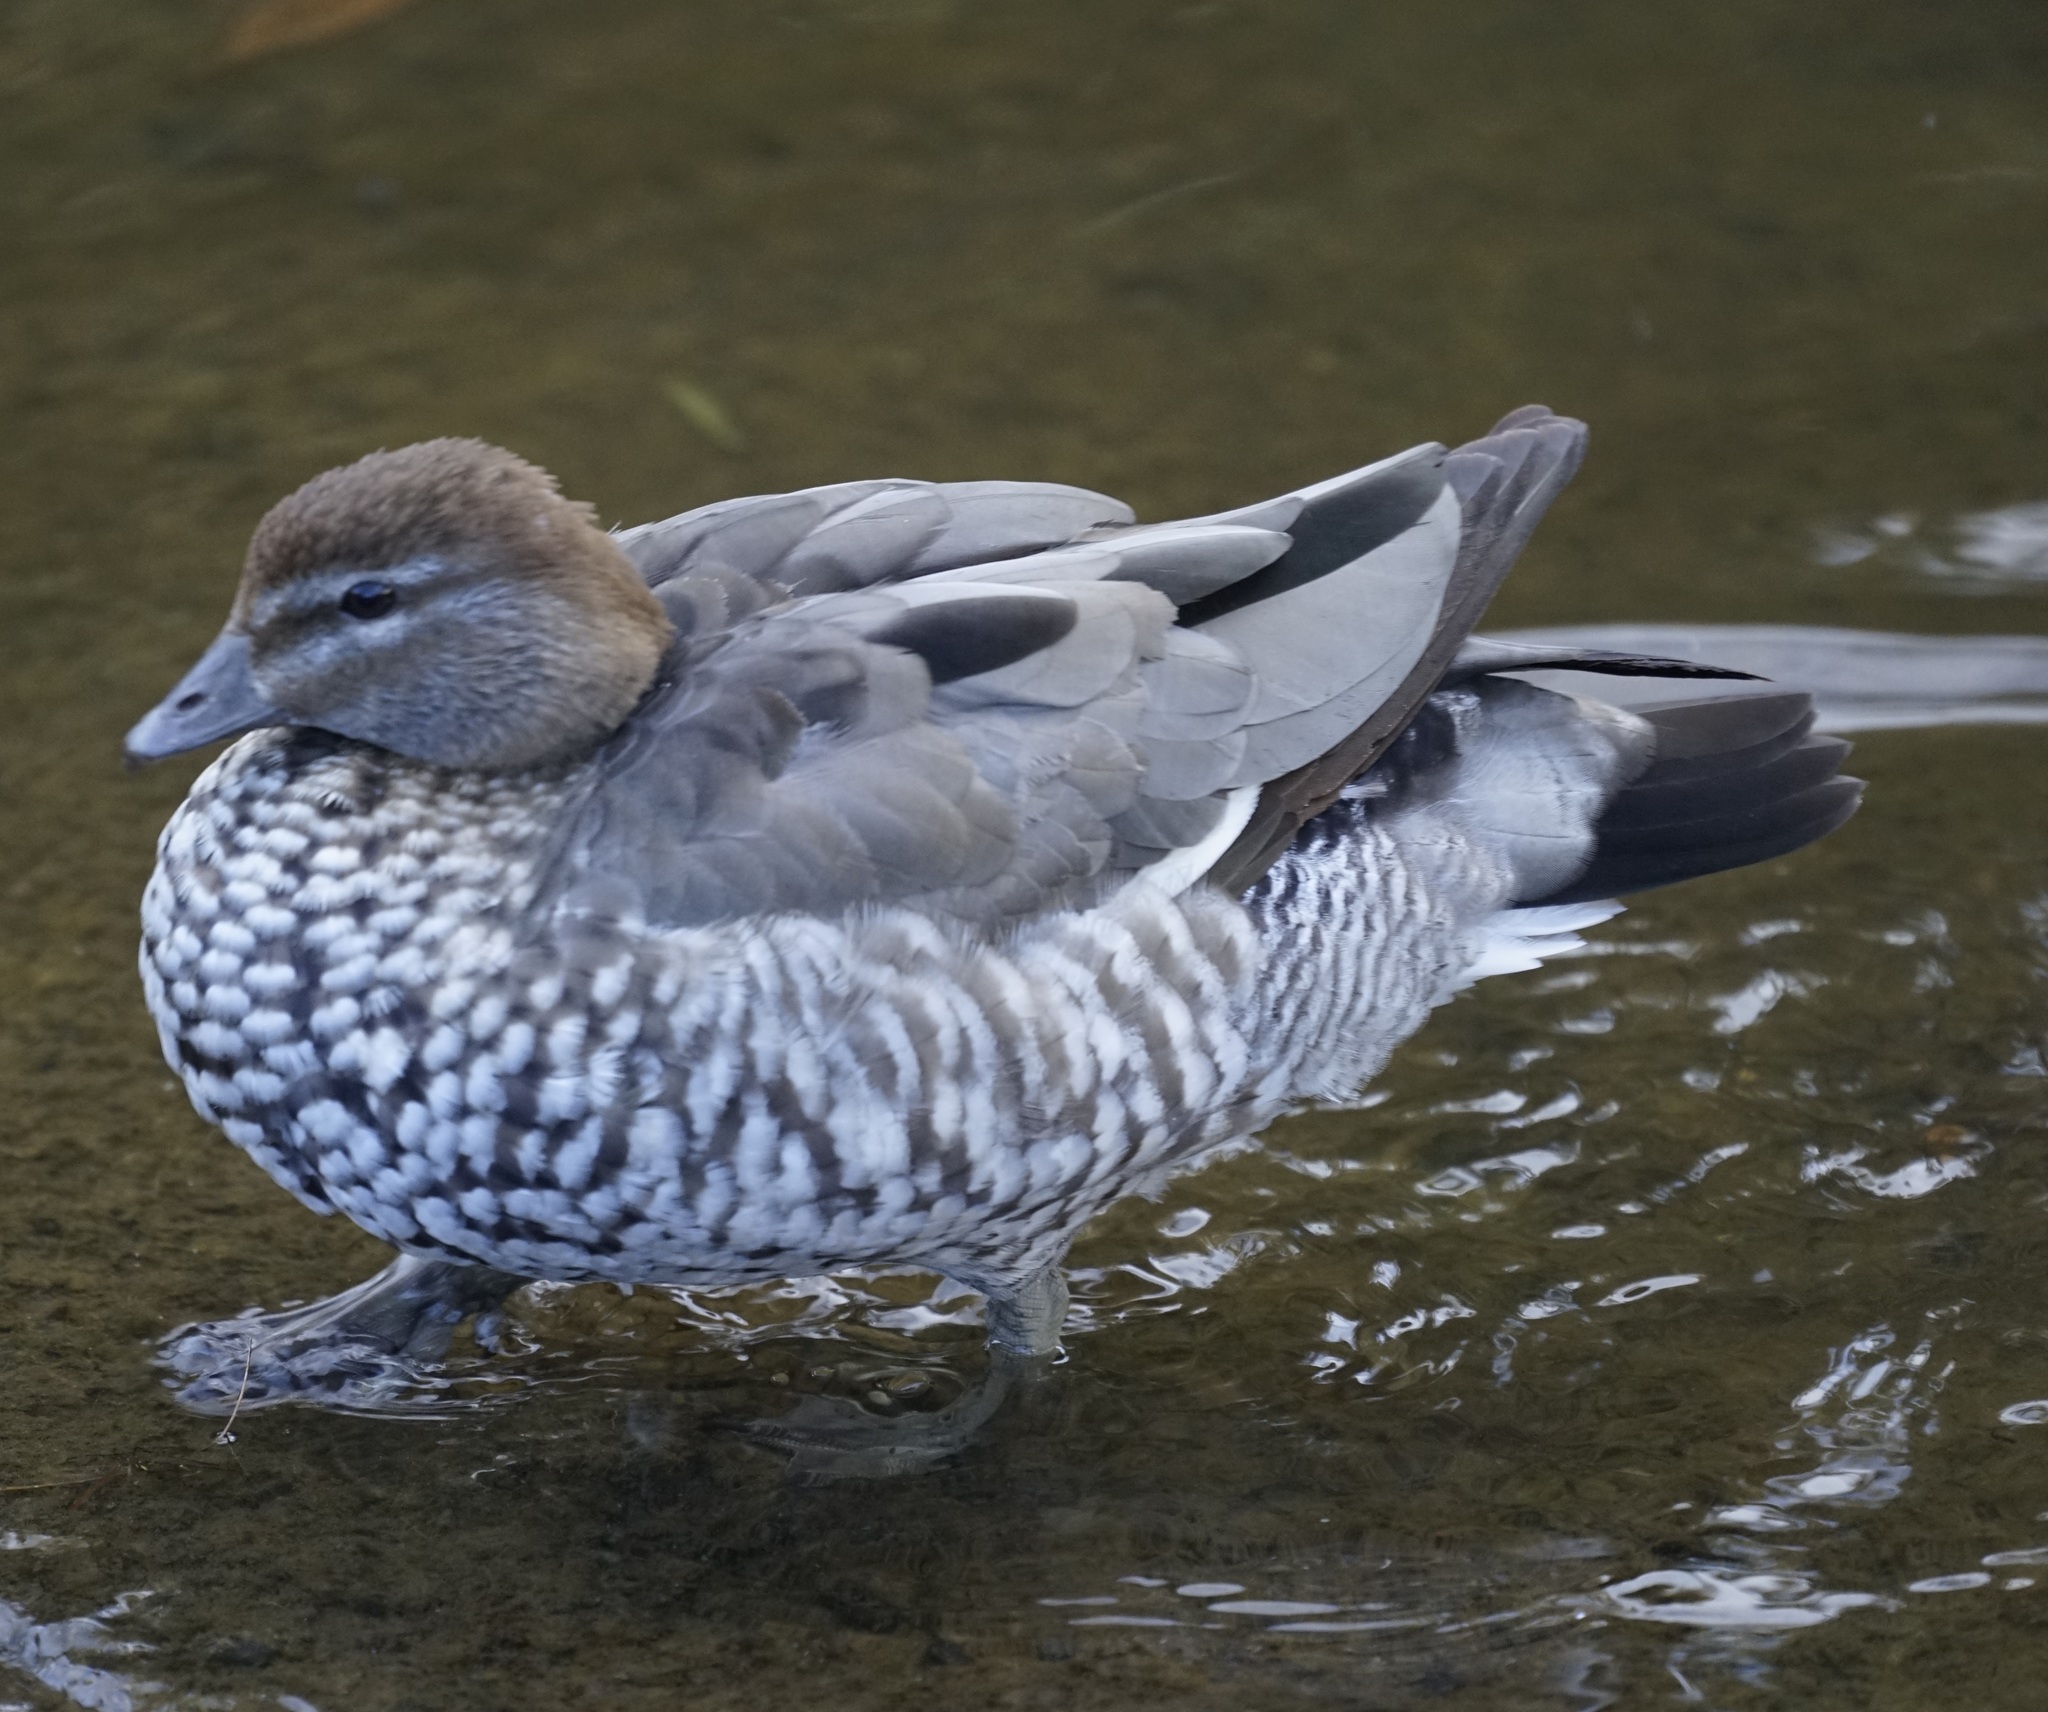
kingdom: Animalia
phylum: Chordata
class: Aves
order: Anseriformes
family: Anatidae
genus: Chenonetta
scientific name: Chenonetta jubata
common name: Maned duck
